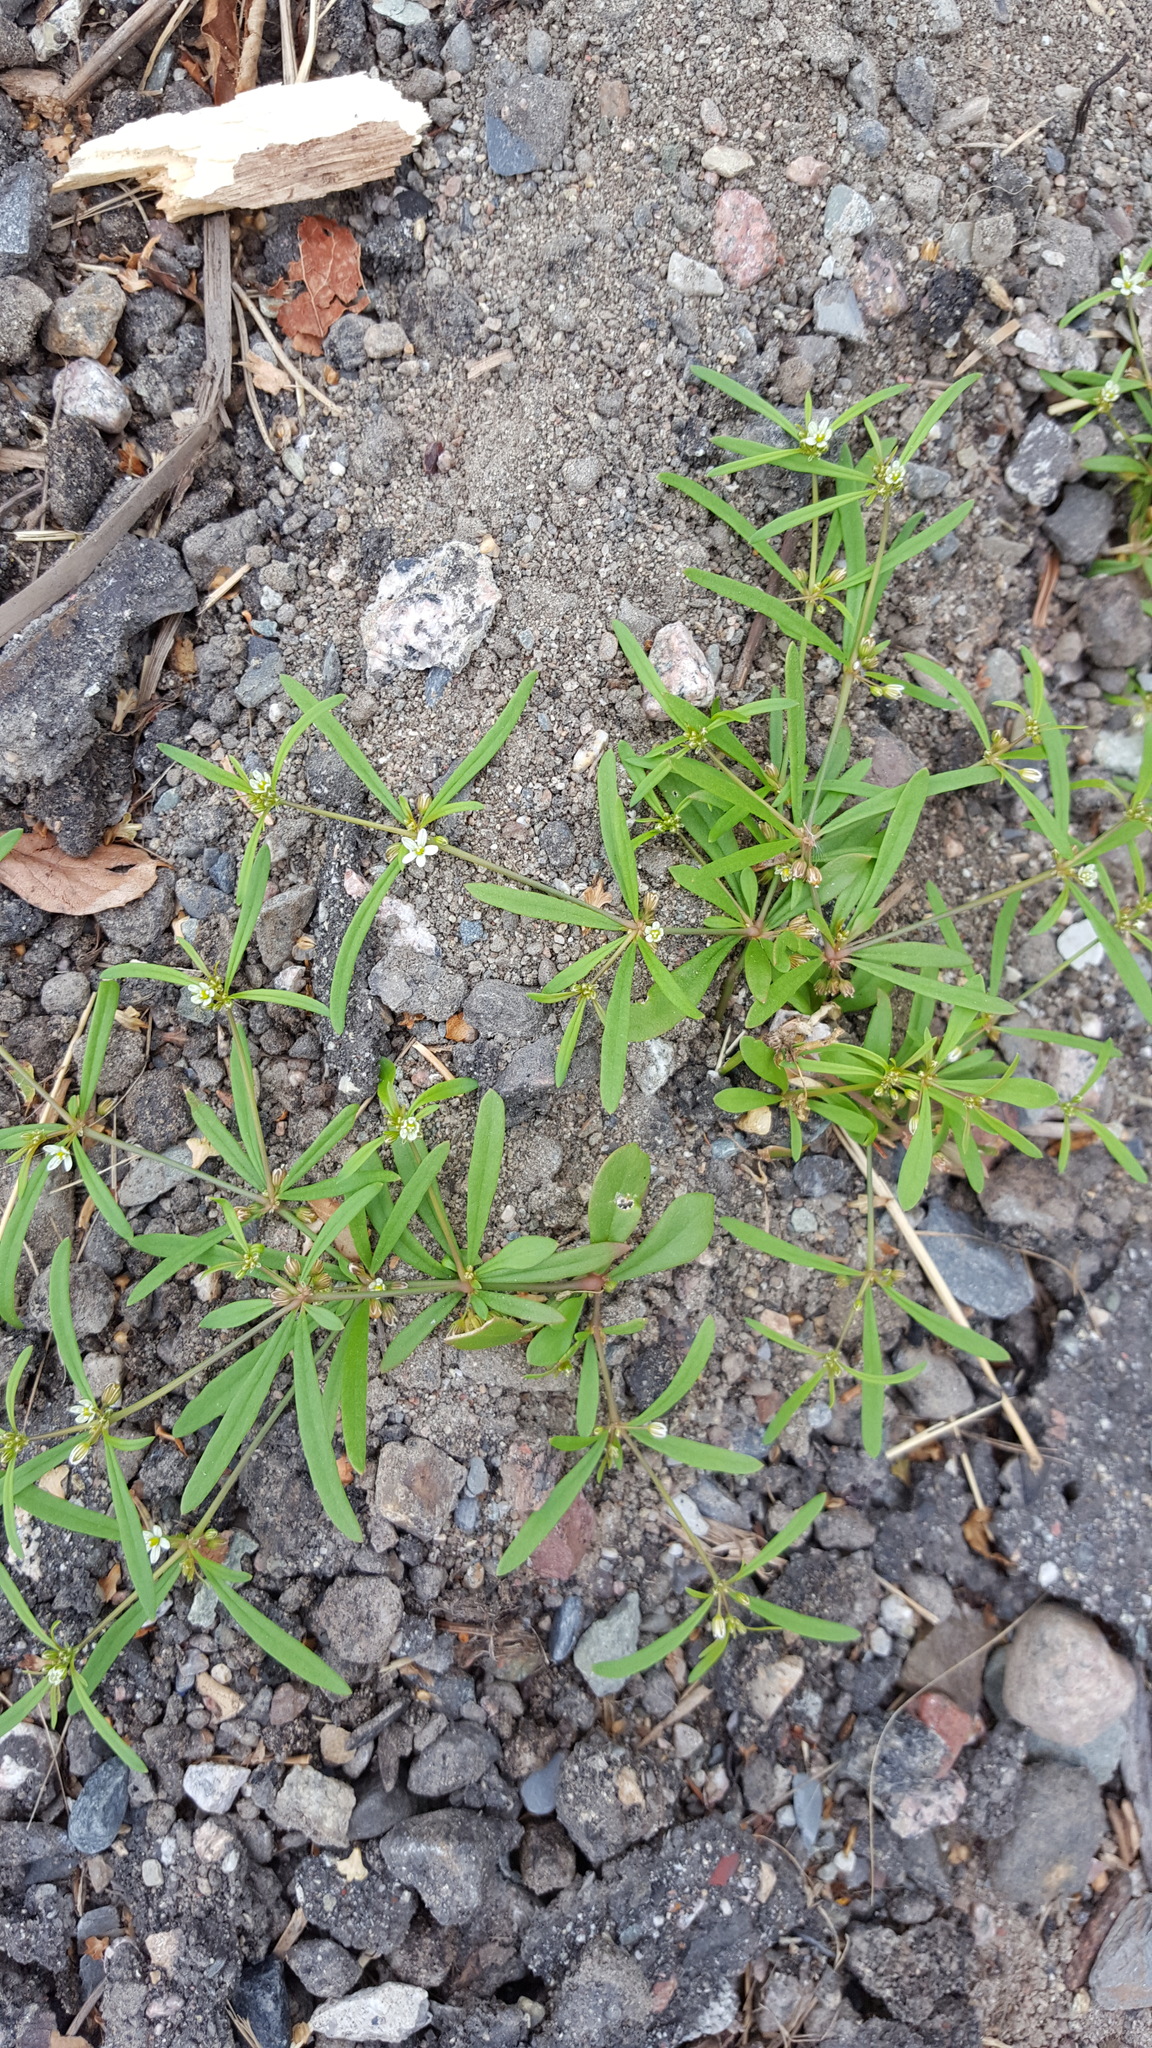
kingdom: Plantae
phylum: Tracheophyta
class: Magnoliopsida
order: Caryophyllales
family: Molluginaceae
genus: Mollugo
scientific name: Mollugo verticillata
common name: Green carpetweed
